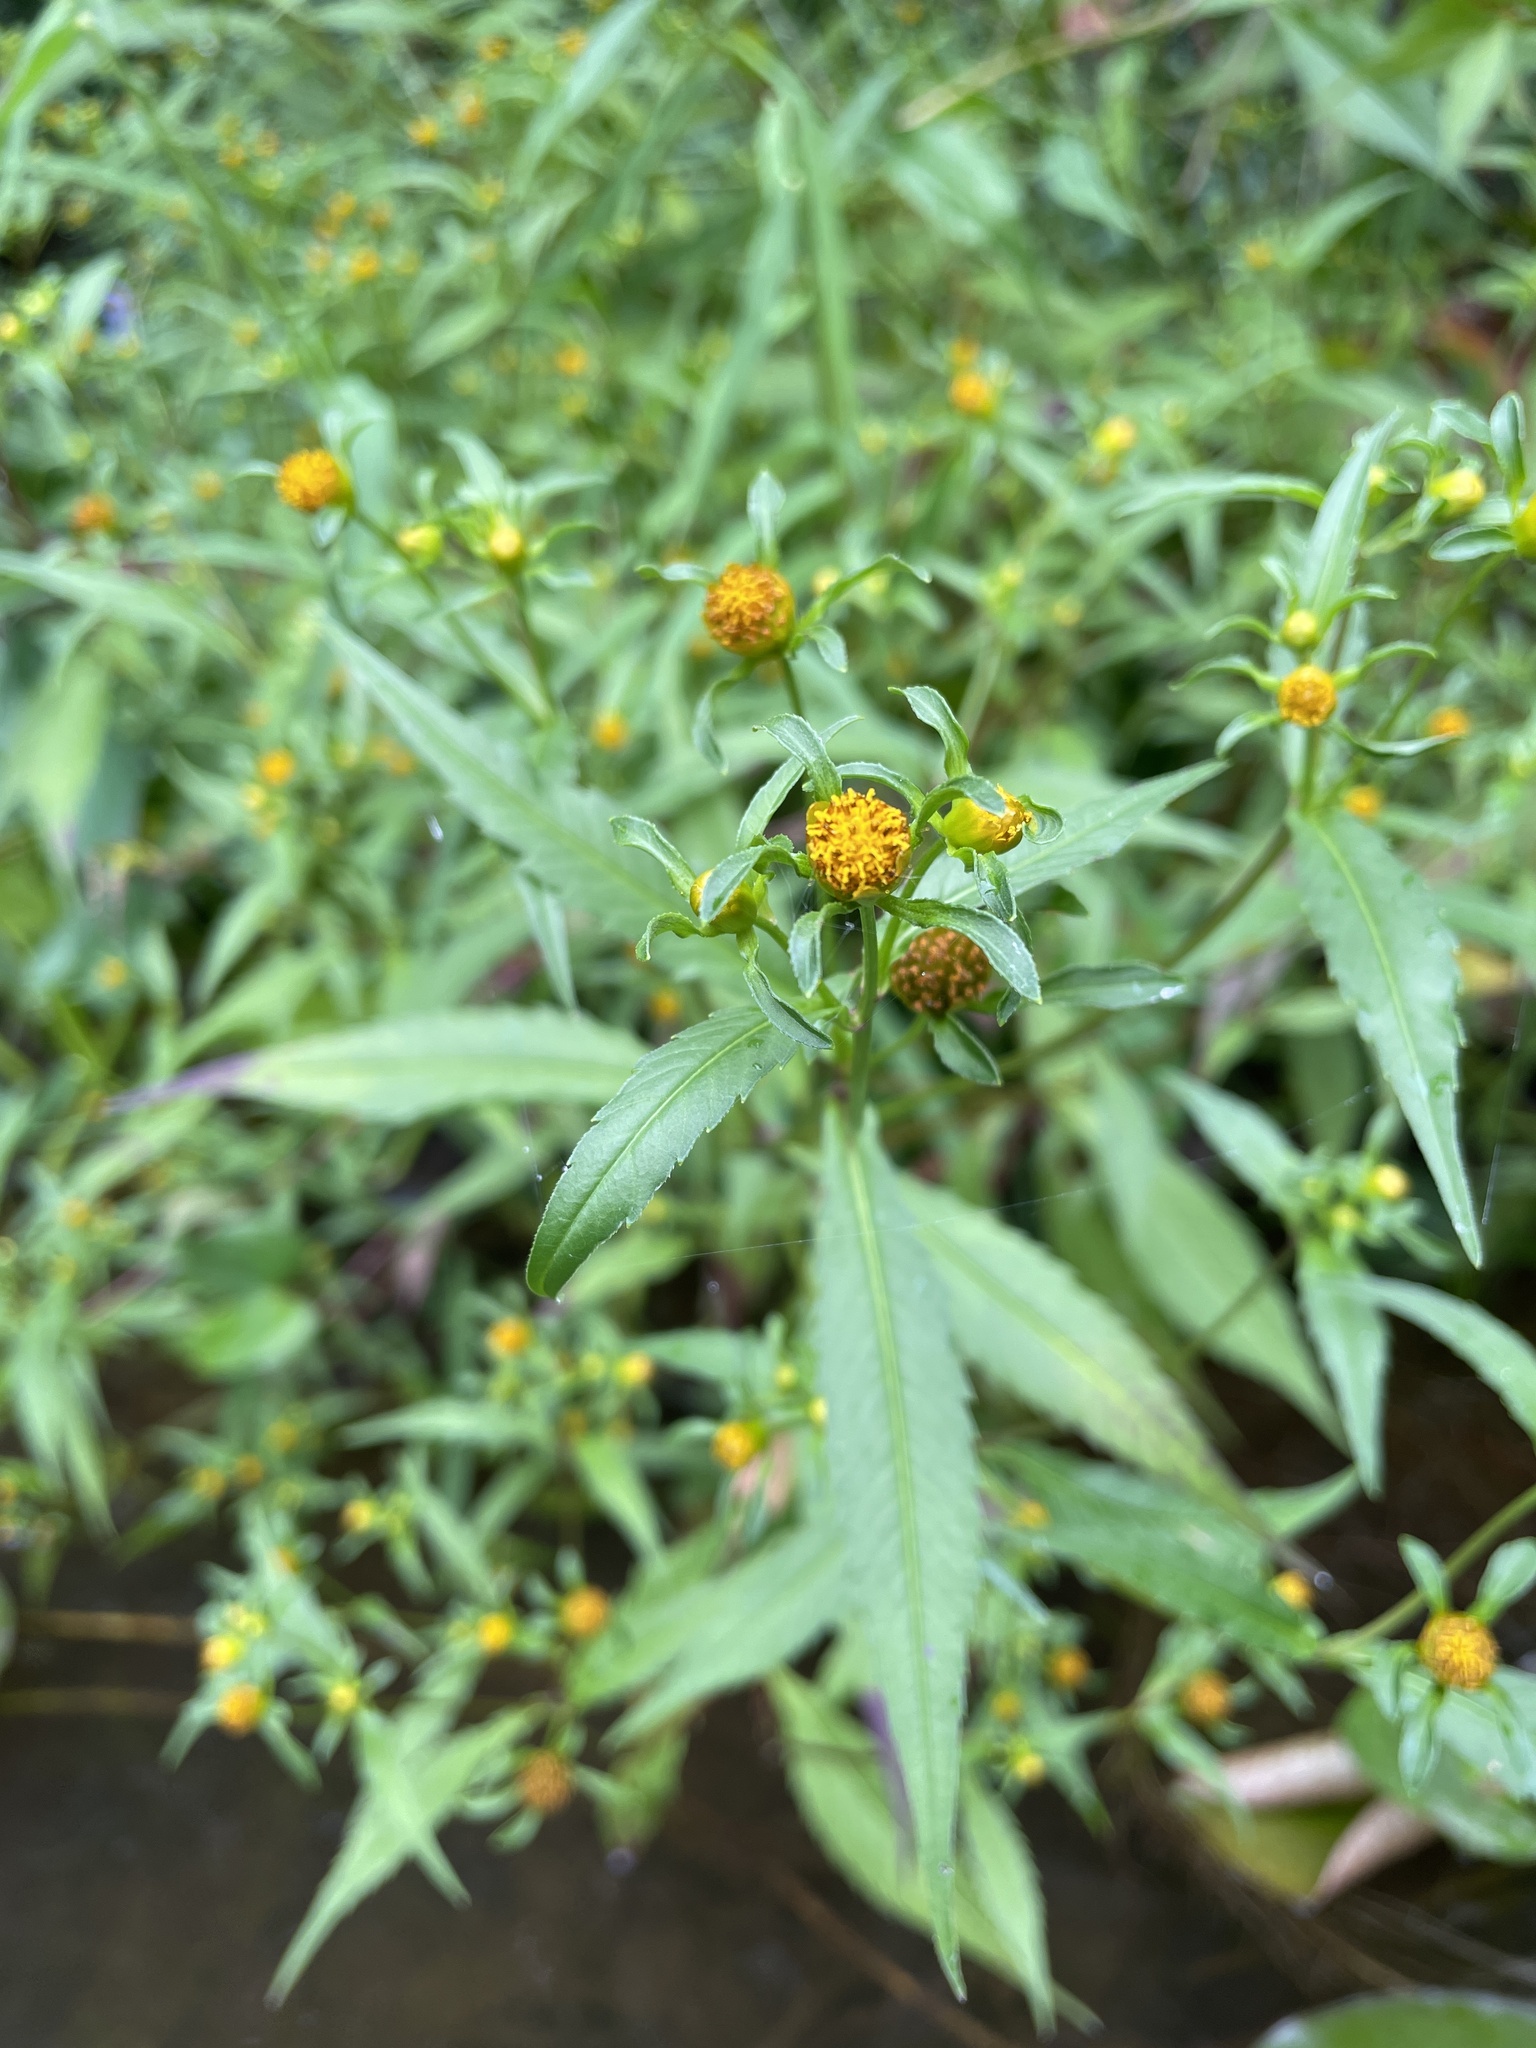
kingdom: Plantae
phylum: Tracheophyta
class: Magnoliopsida
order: Asterales
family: Asteraceae
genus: Bidens
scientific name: Bidens connata
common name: London bur-marigold
